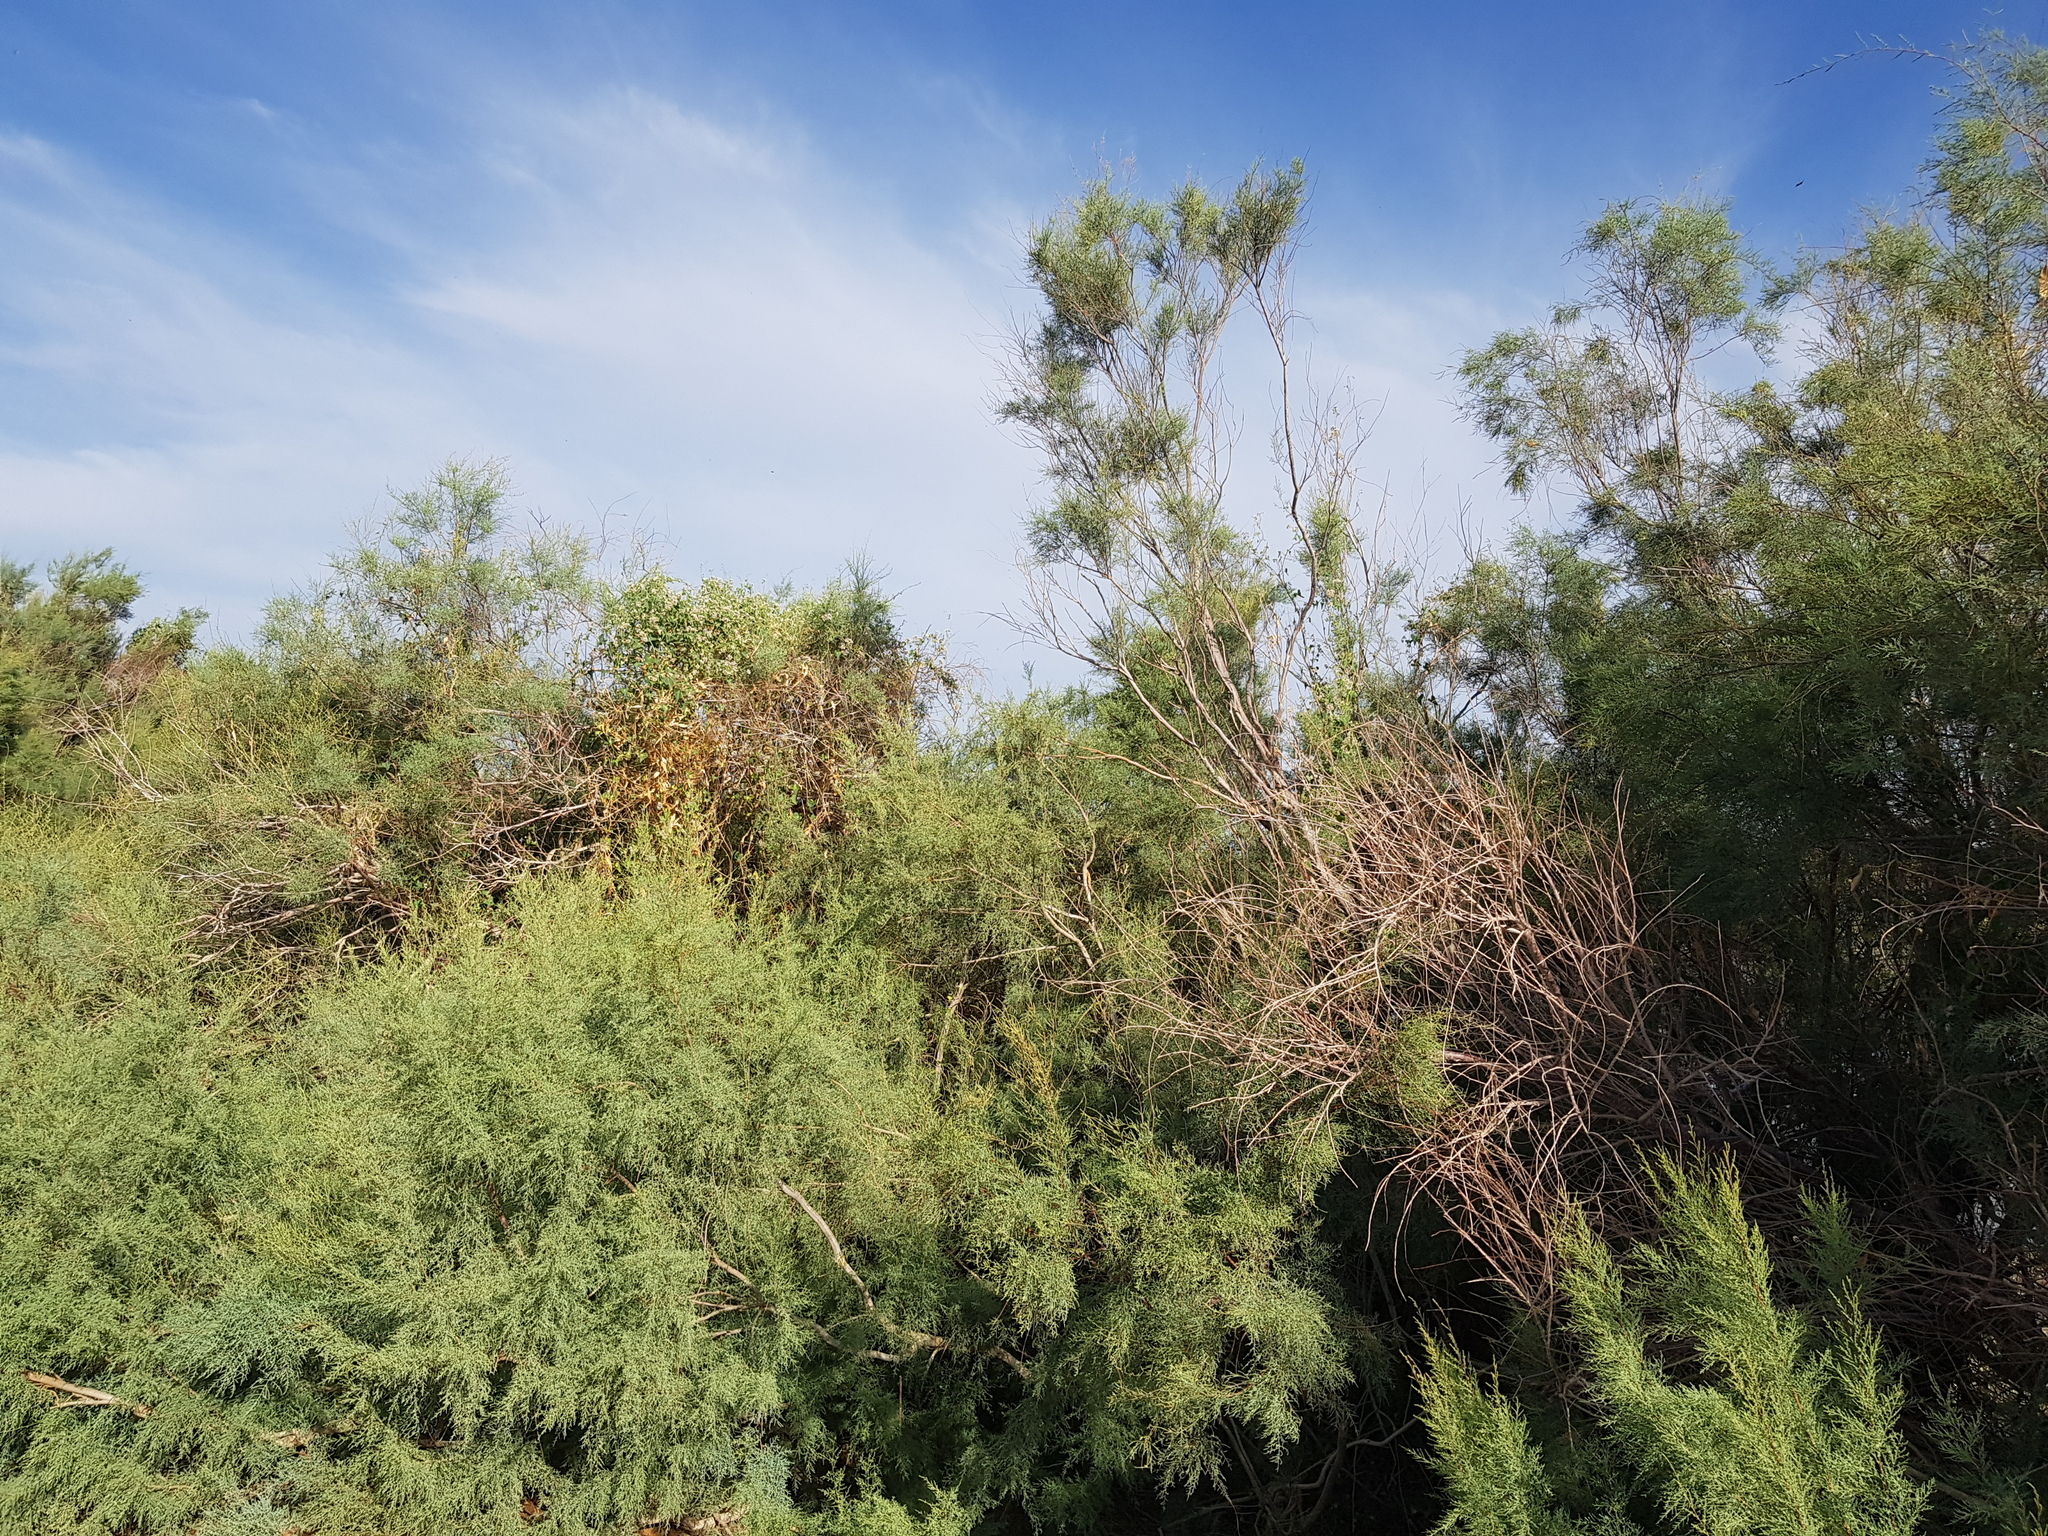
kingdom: Plantae
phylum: Tracheophyta
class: Magnoliopsida
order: Caryophyllales
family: Tamaricaceae
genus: Tamarix
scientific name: Tamarix ramosissima
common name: Pink tamarisk
